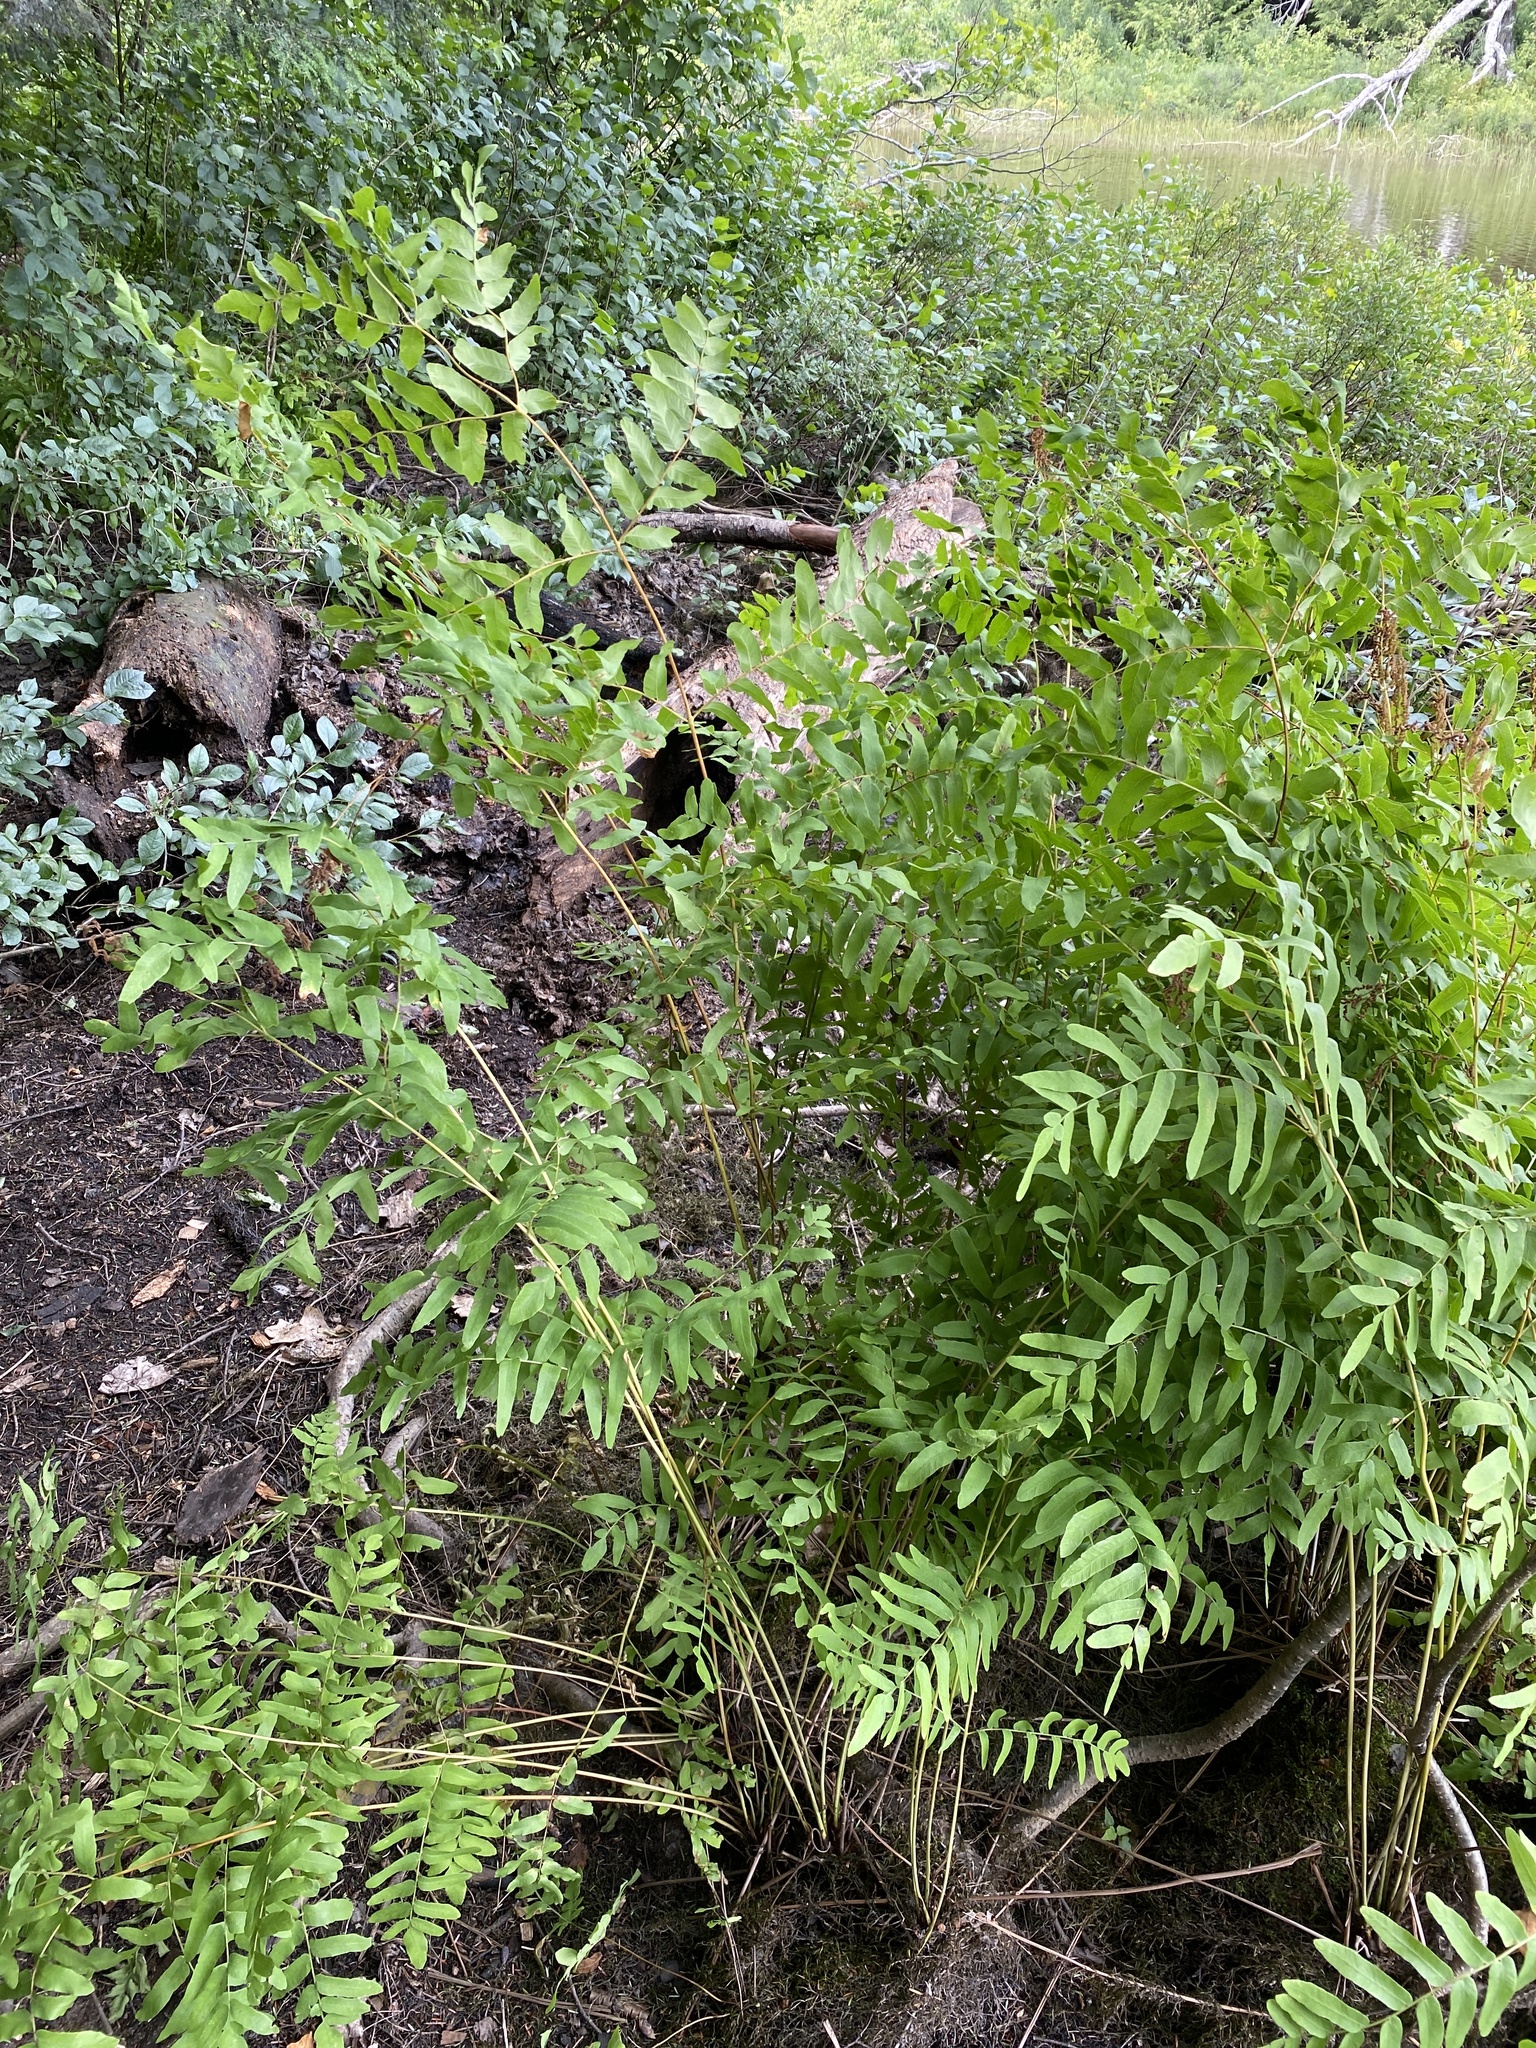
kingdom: Plantae
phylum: Tracheophyta
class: Polypodiopsida
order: Osmundales
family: Osmundaceae
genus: Osmunda
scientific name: Osmunda spectabilis
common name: American royal fern
